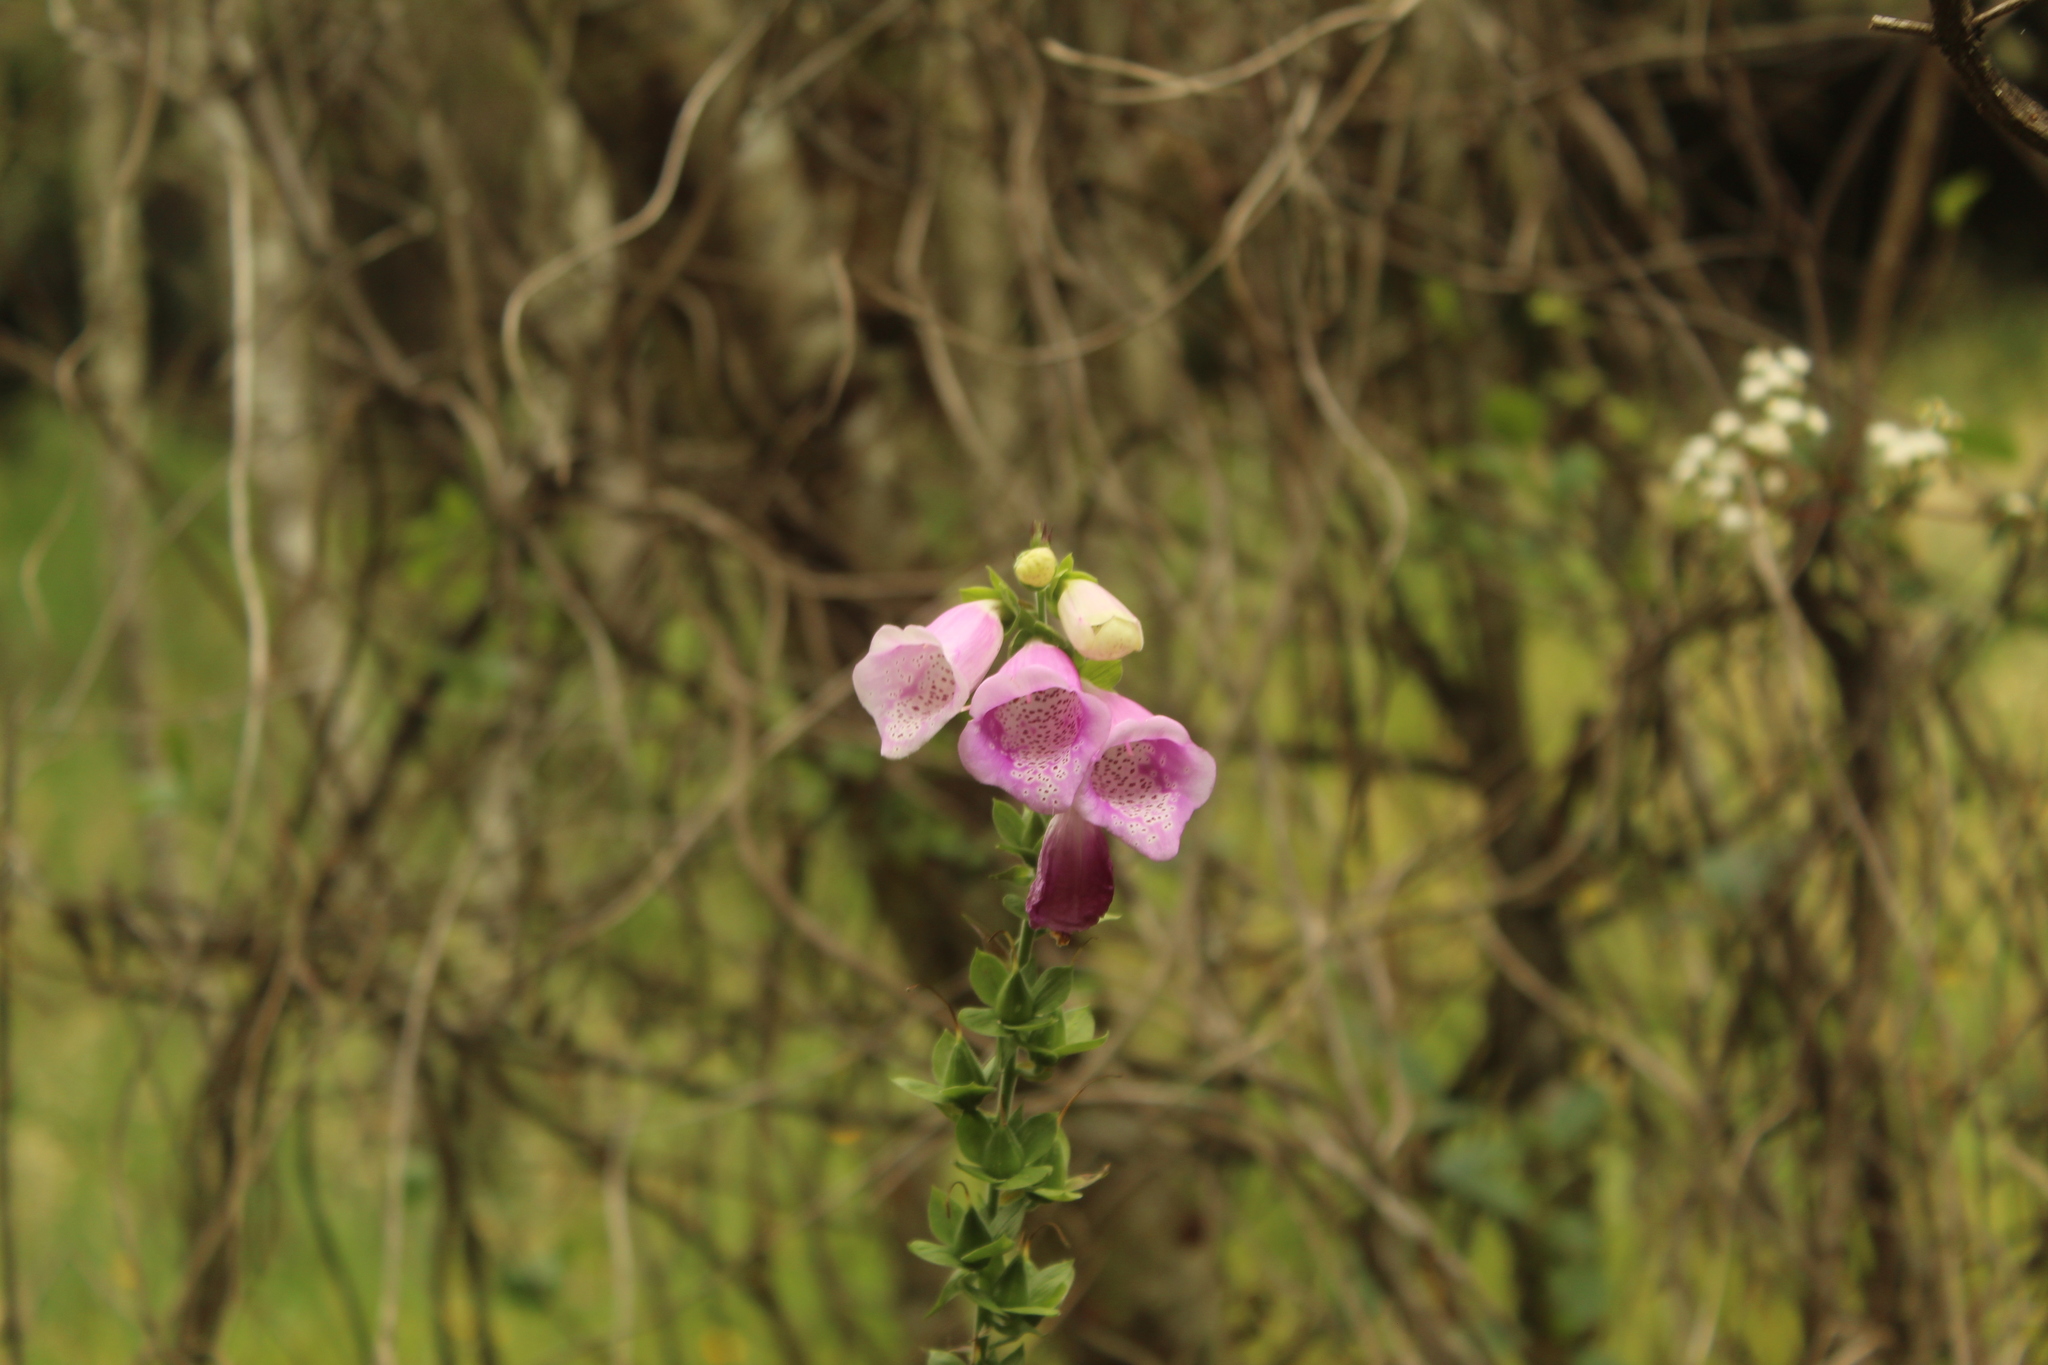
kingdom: Plantae
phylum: Tracheophyta
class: Magnoliopsida
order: Lamiales
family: Plantaginaceae
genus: Digitalis
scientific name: Digitalis purpurea
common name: Foxglove
